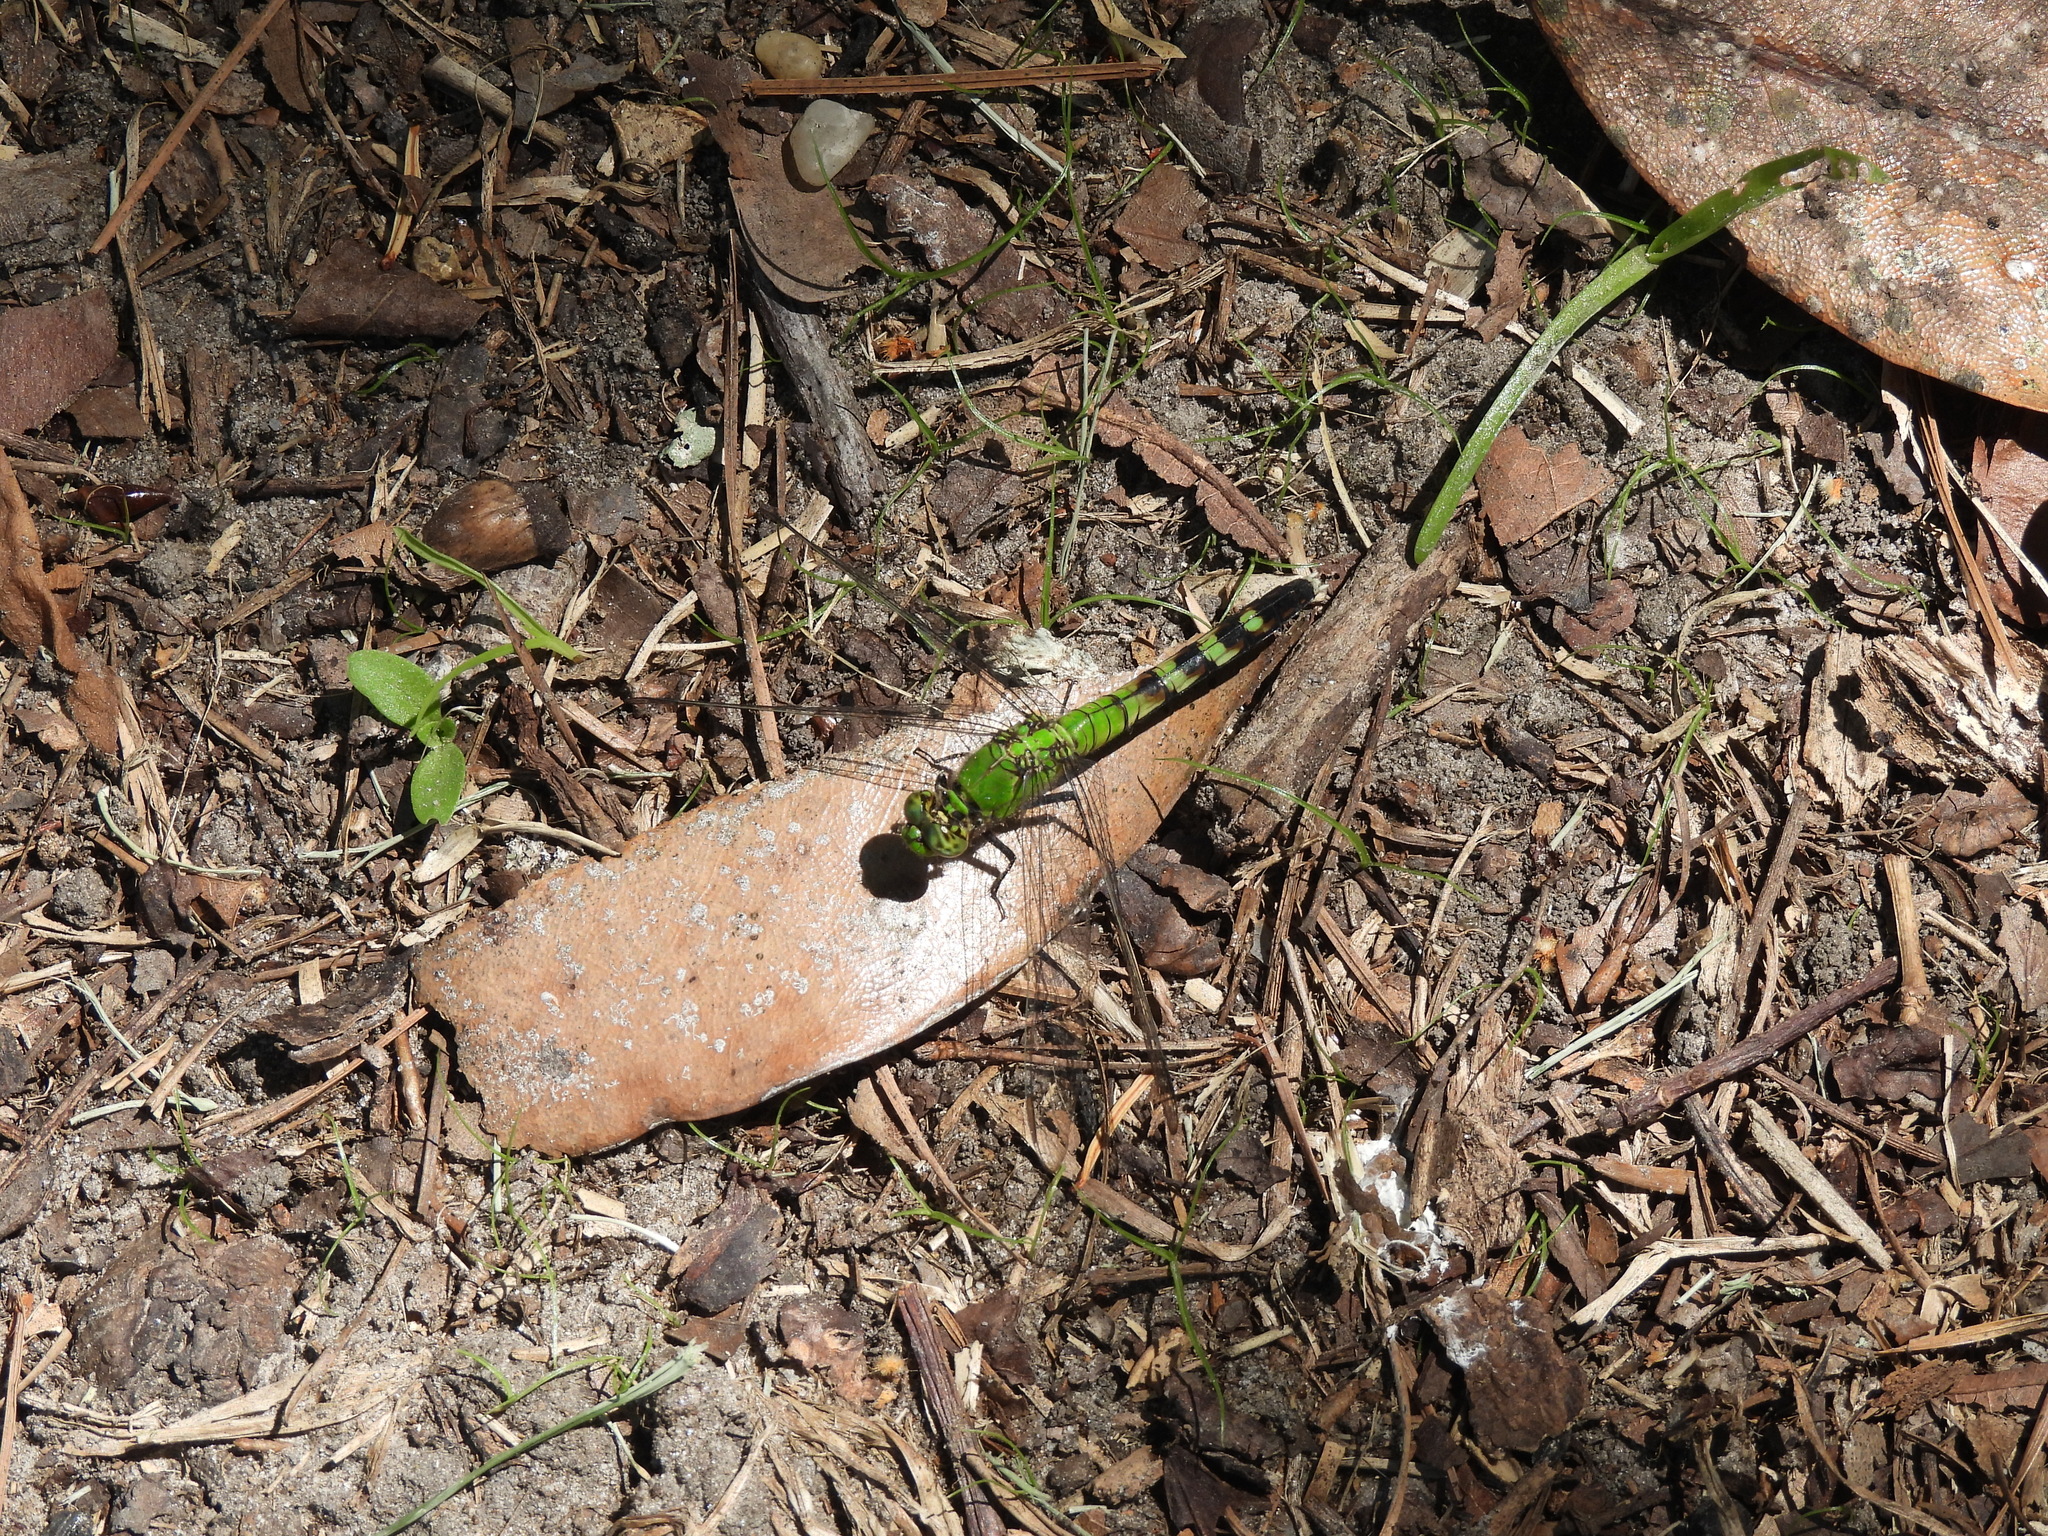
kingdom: Animalia
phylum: Arthropoda
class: Insecta
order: Odonata
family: Libellulidae
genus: Erythemis
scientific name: Erythemis simplicicollis
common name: Eastern pondhawk
